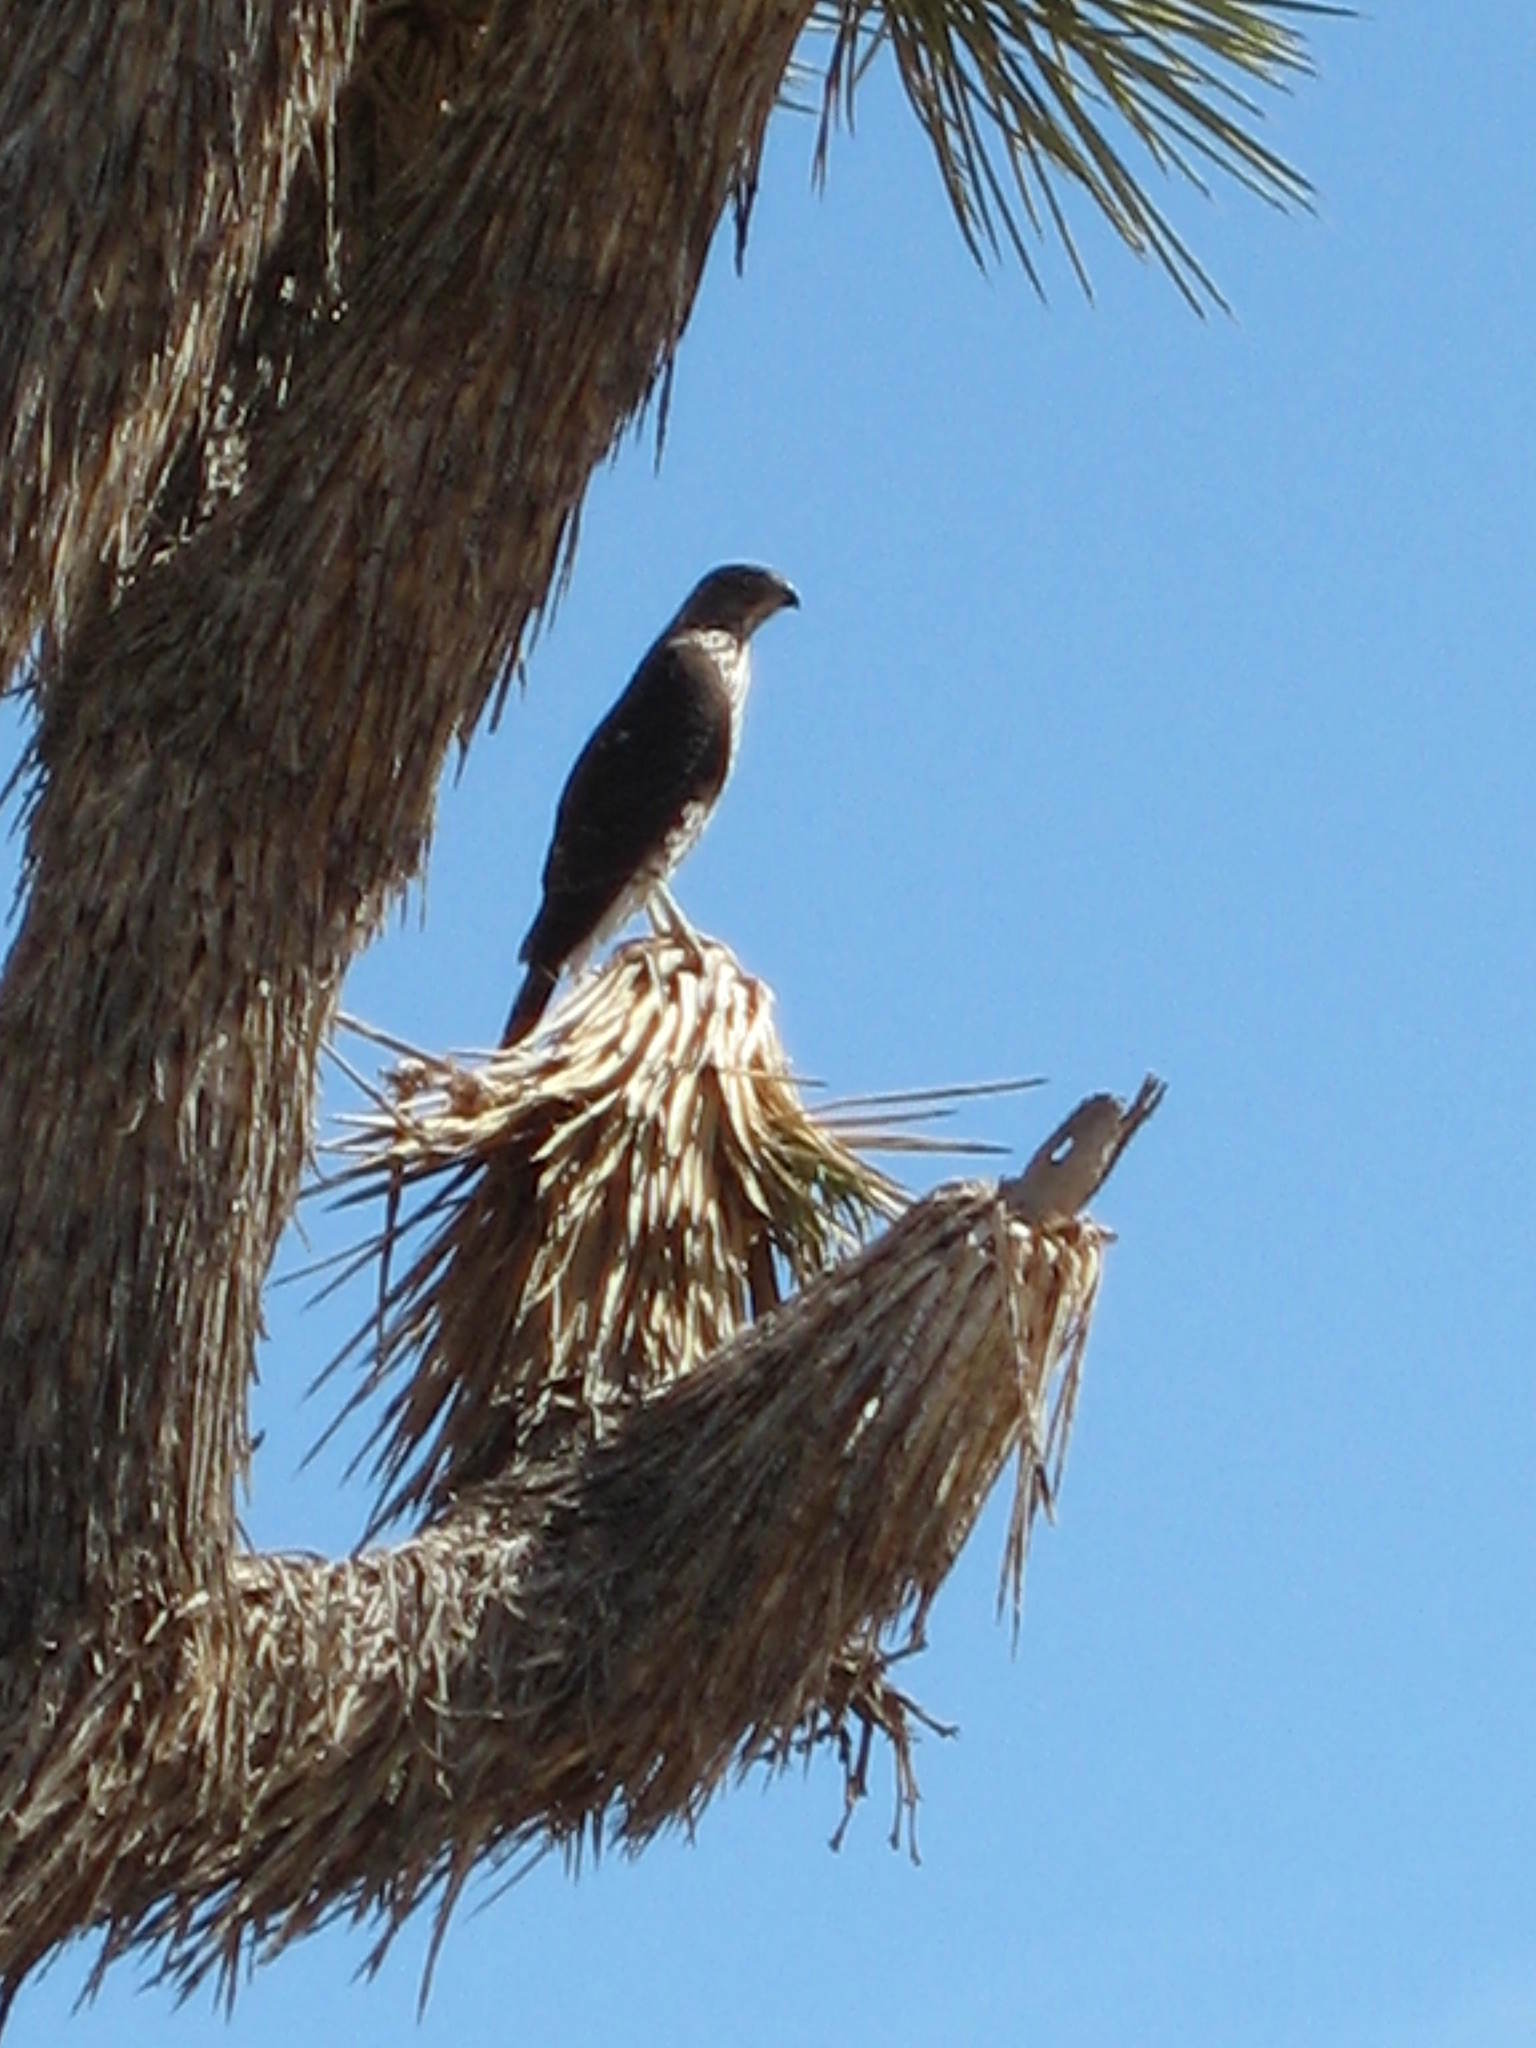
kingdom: Animalia
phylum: Chordata
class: Aves
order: Accipitriformes
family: Accipitridae
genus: Accipiter
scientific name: Accipiter cooperii
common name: Cooper's hawk
